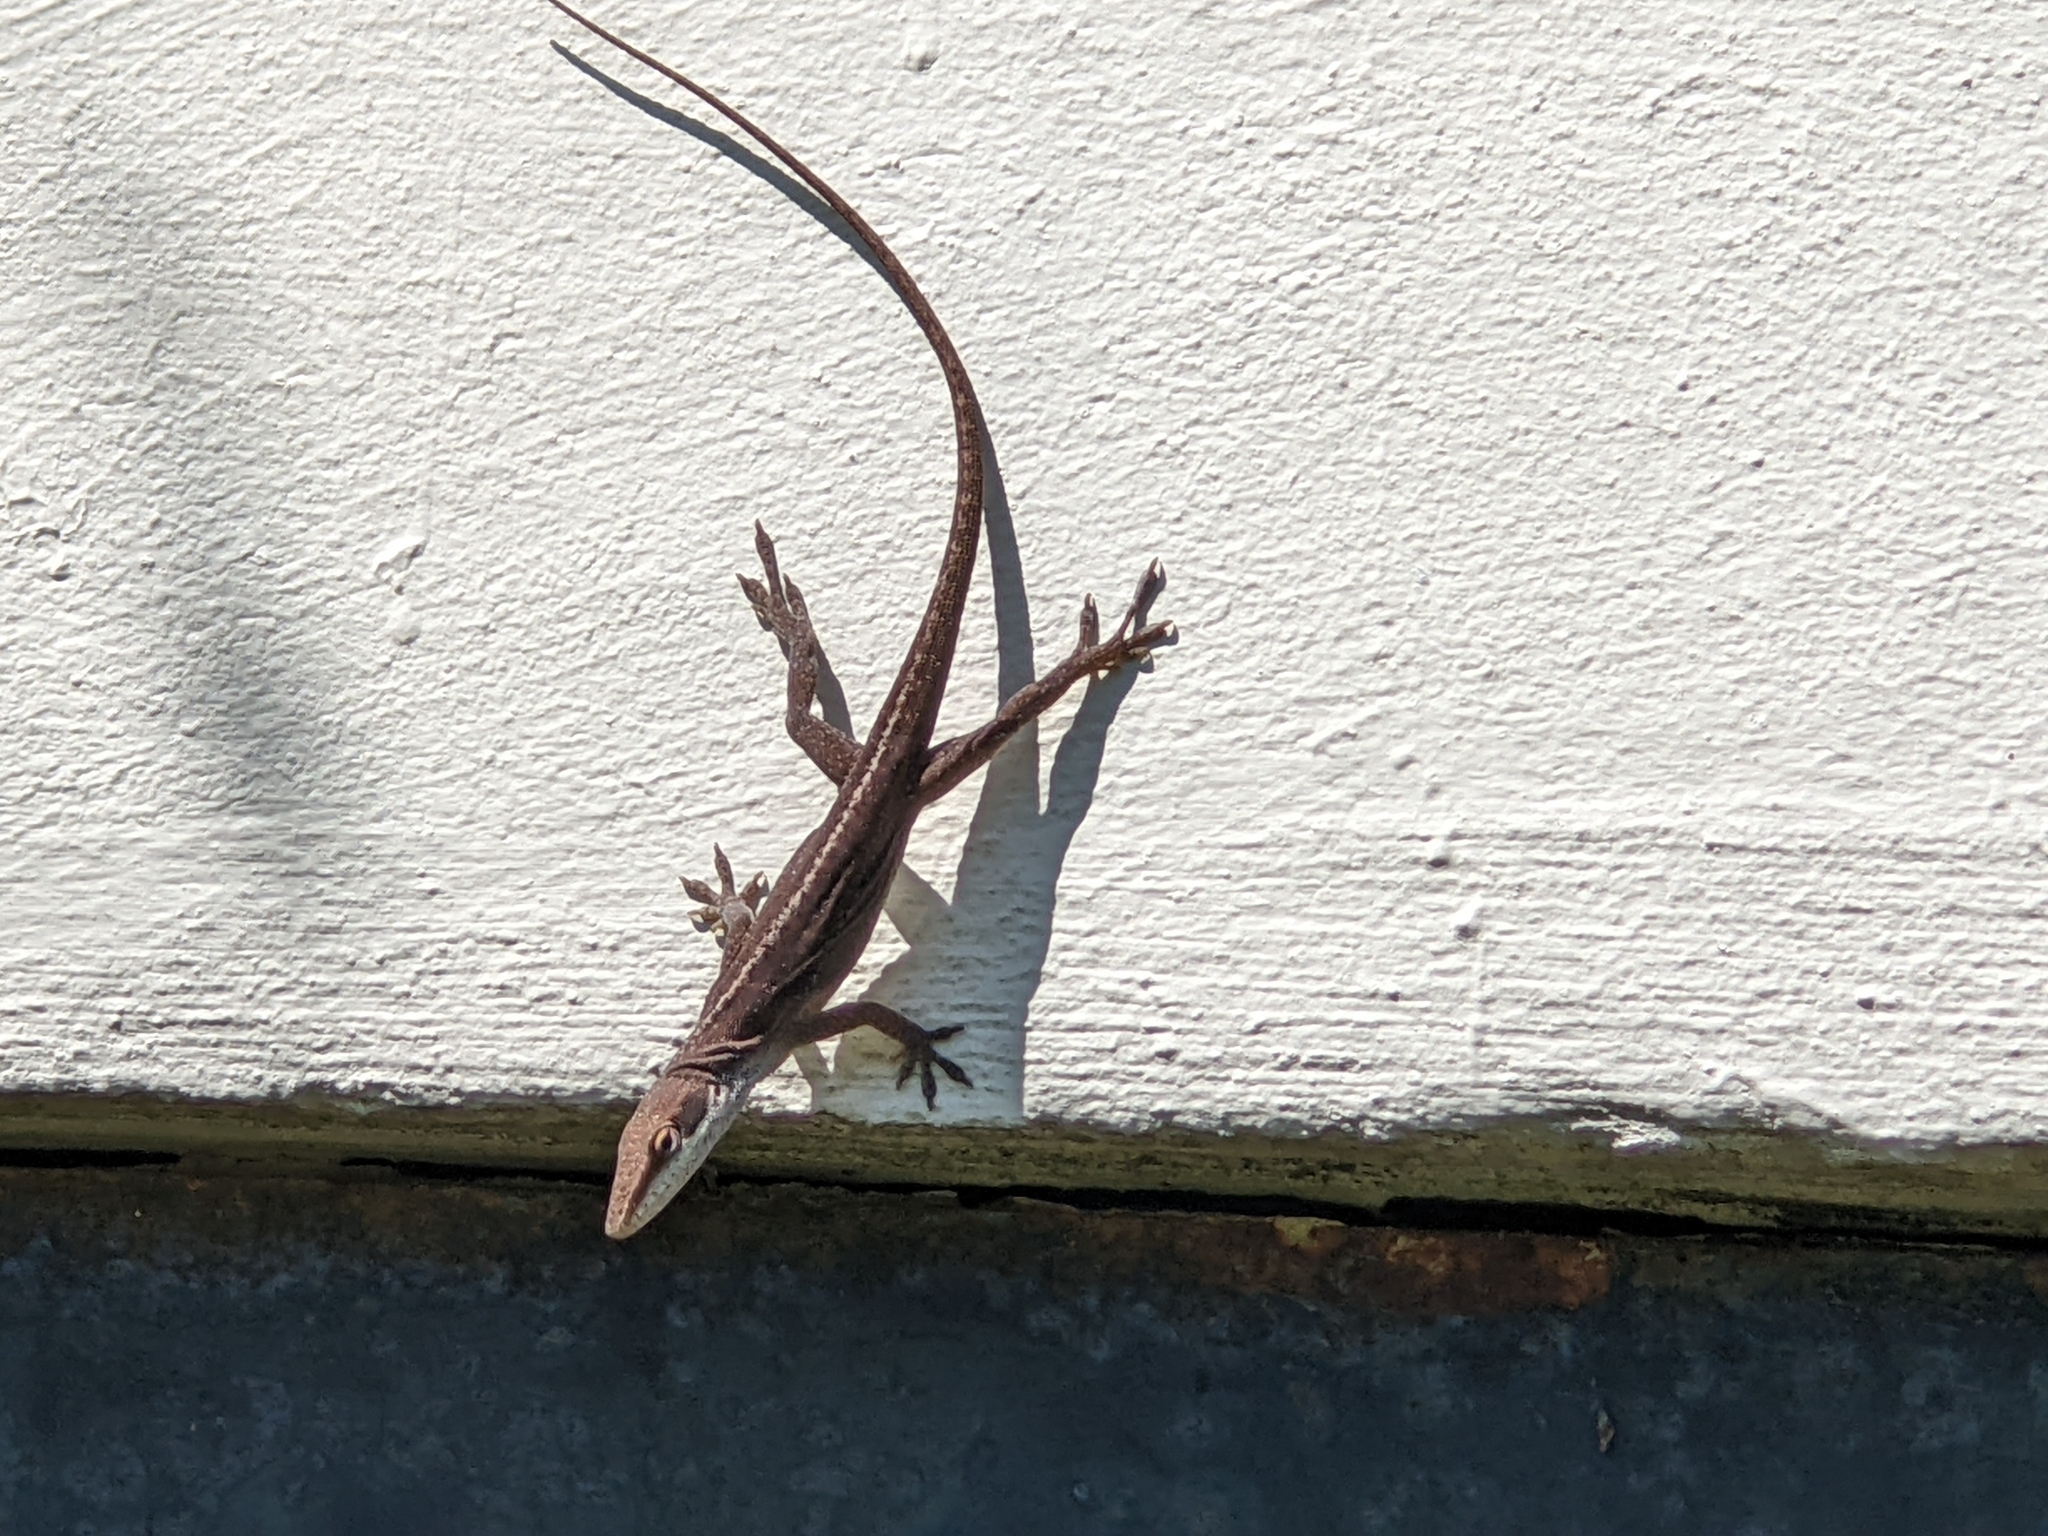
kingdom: Animalia
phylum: Chordata
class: Squamata
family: Dactyloidae
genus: Anolis
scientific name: Anolis carolinensis
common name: Green anole
